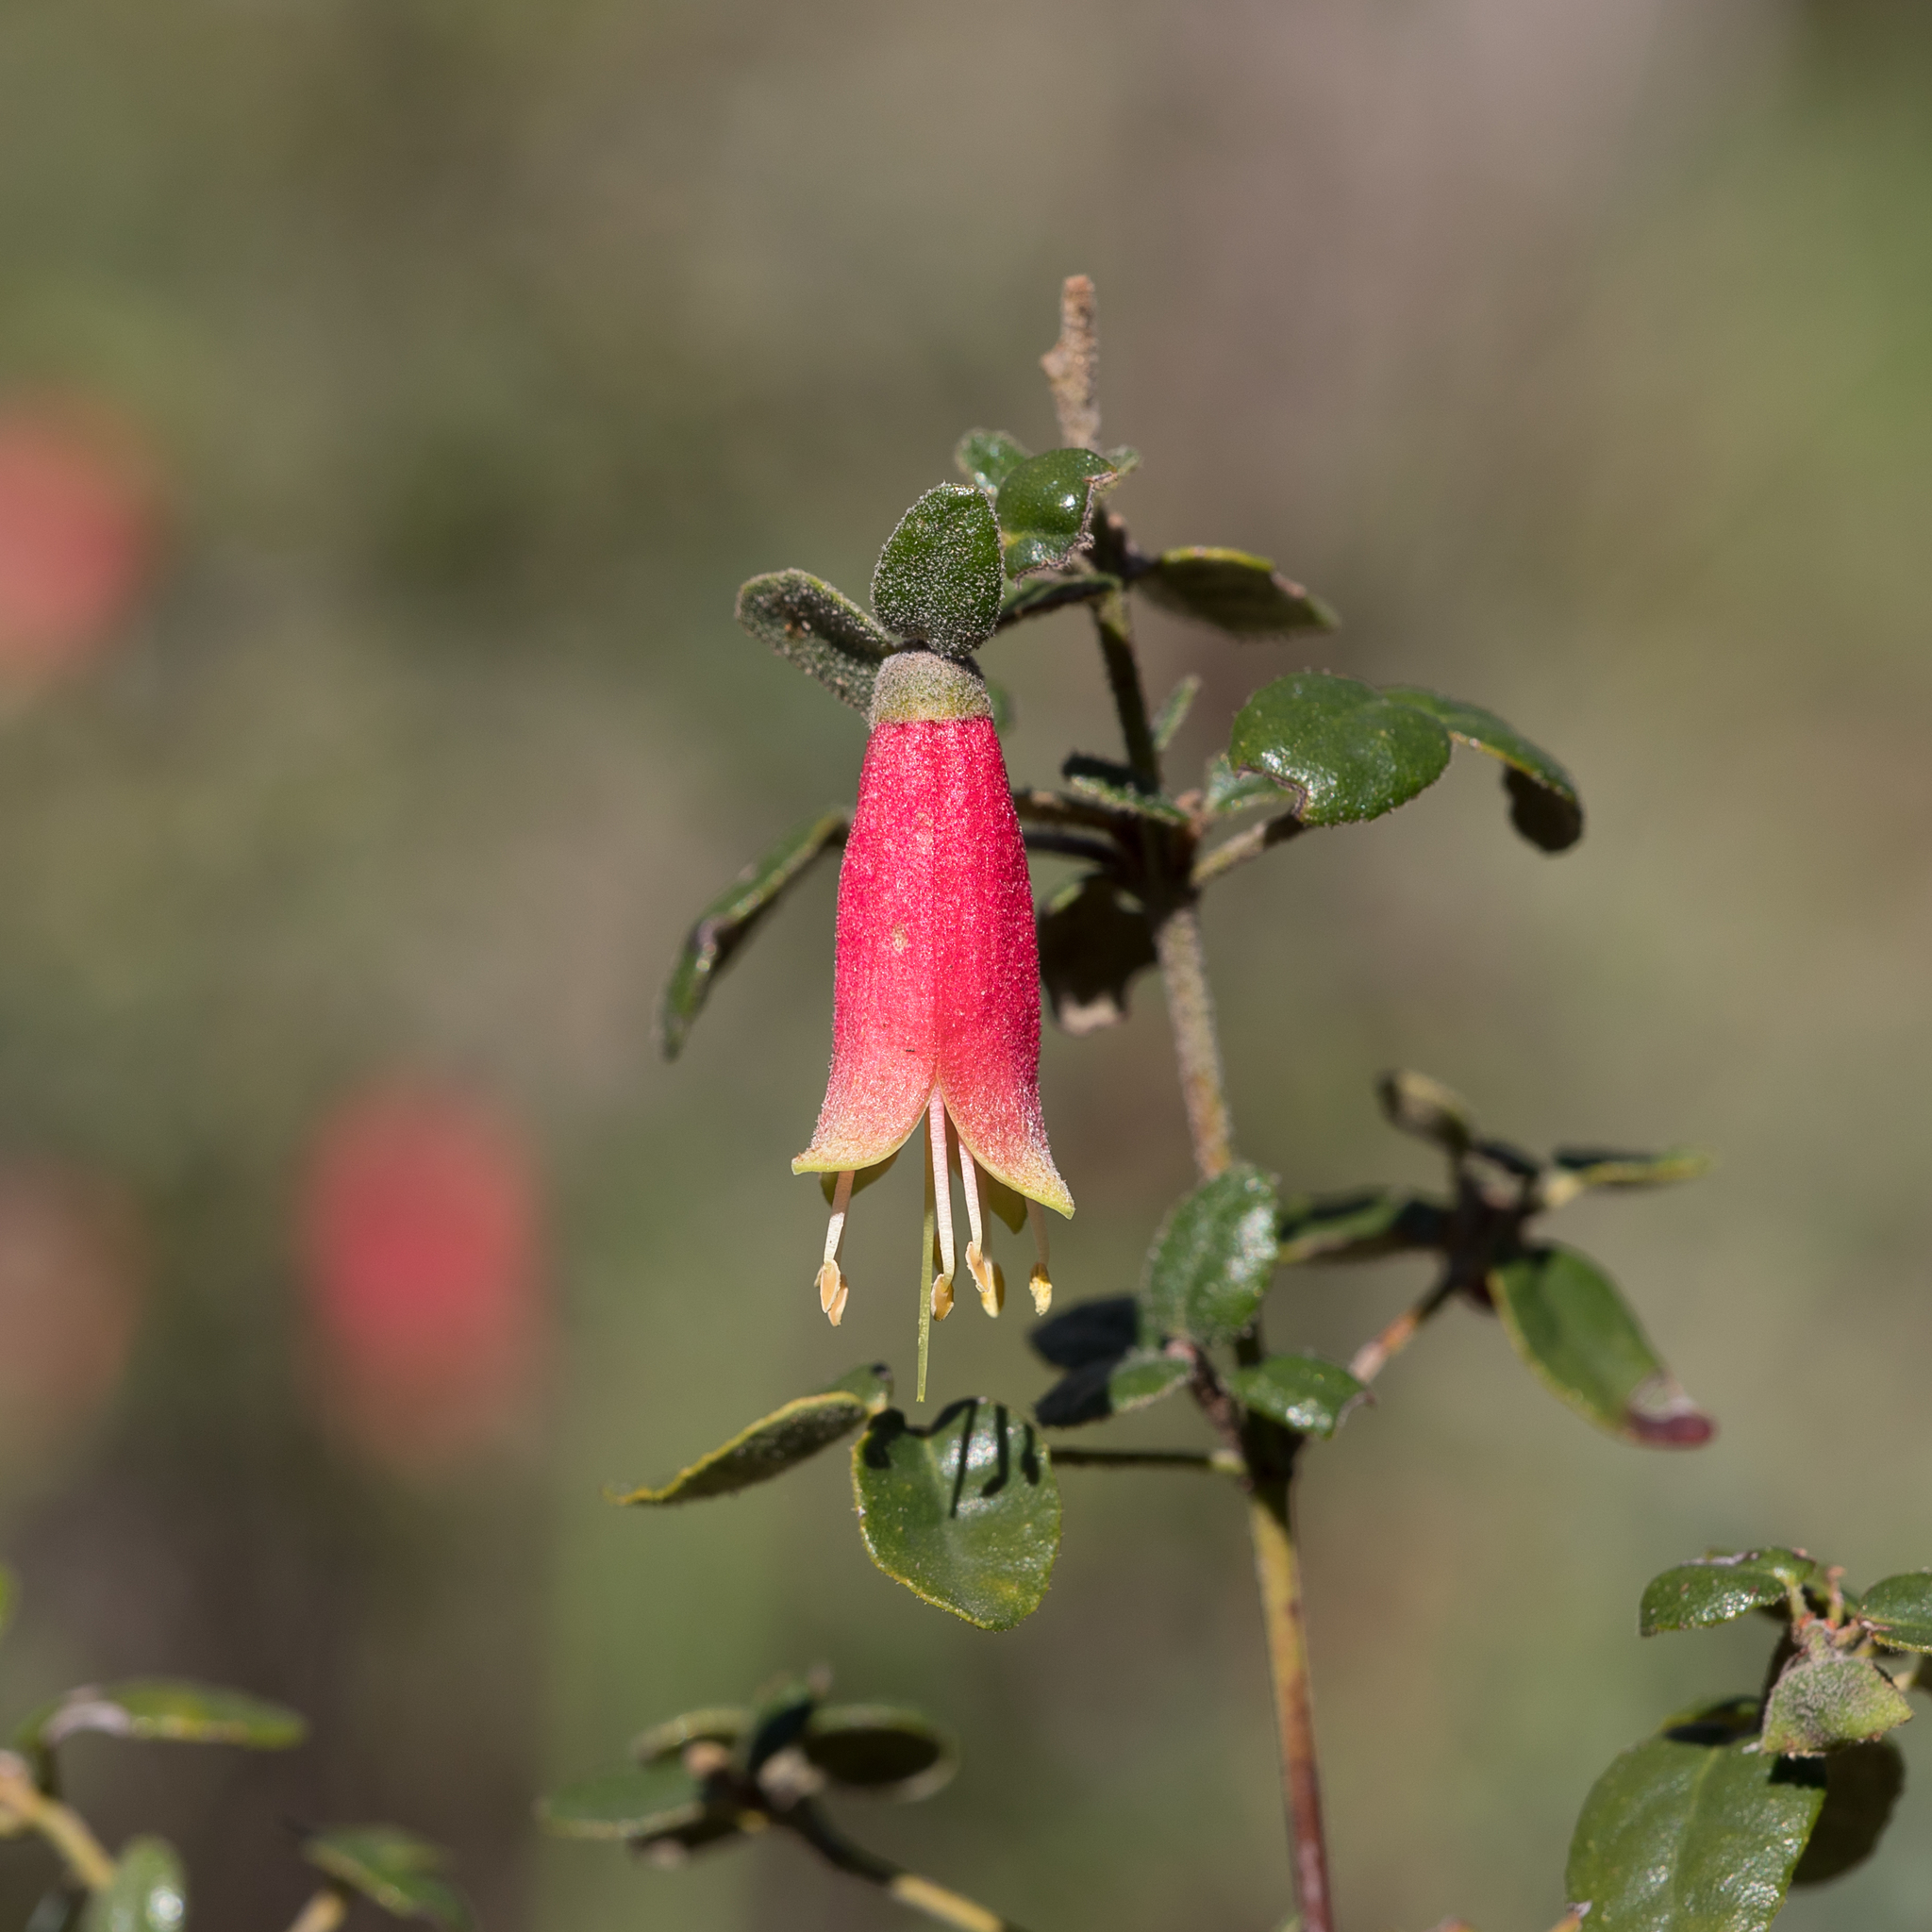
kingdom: Plantae
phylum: Tracheophyta
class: Magnoliopsida
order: Sapindales
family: Rutaceae
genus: Correa
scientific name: Correa reflexa
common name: Common correa
